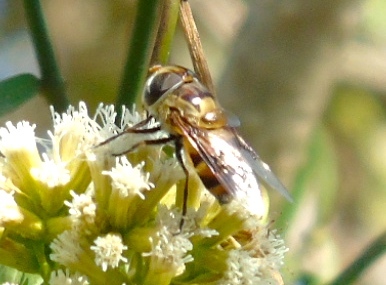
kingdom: Animalia
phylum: Arthropoda
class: Insecta
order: Diptera
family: Syrphidae
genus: Copestylum
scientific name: Copestylum quadratum
